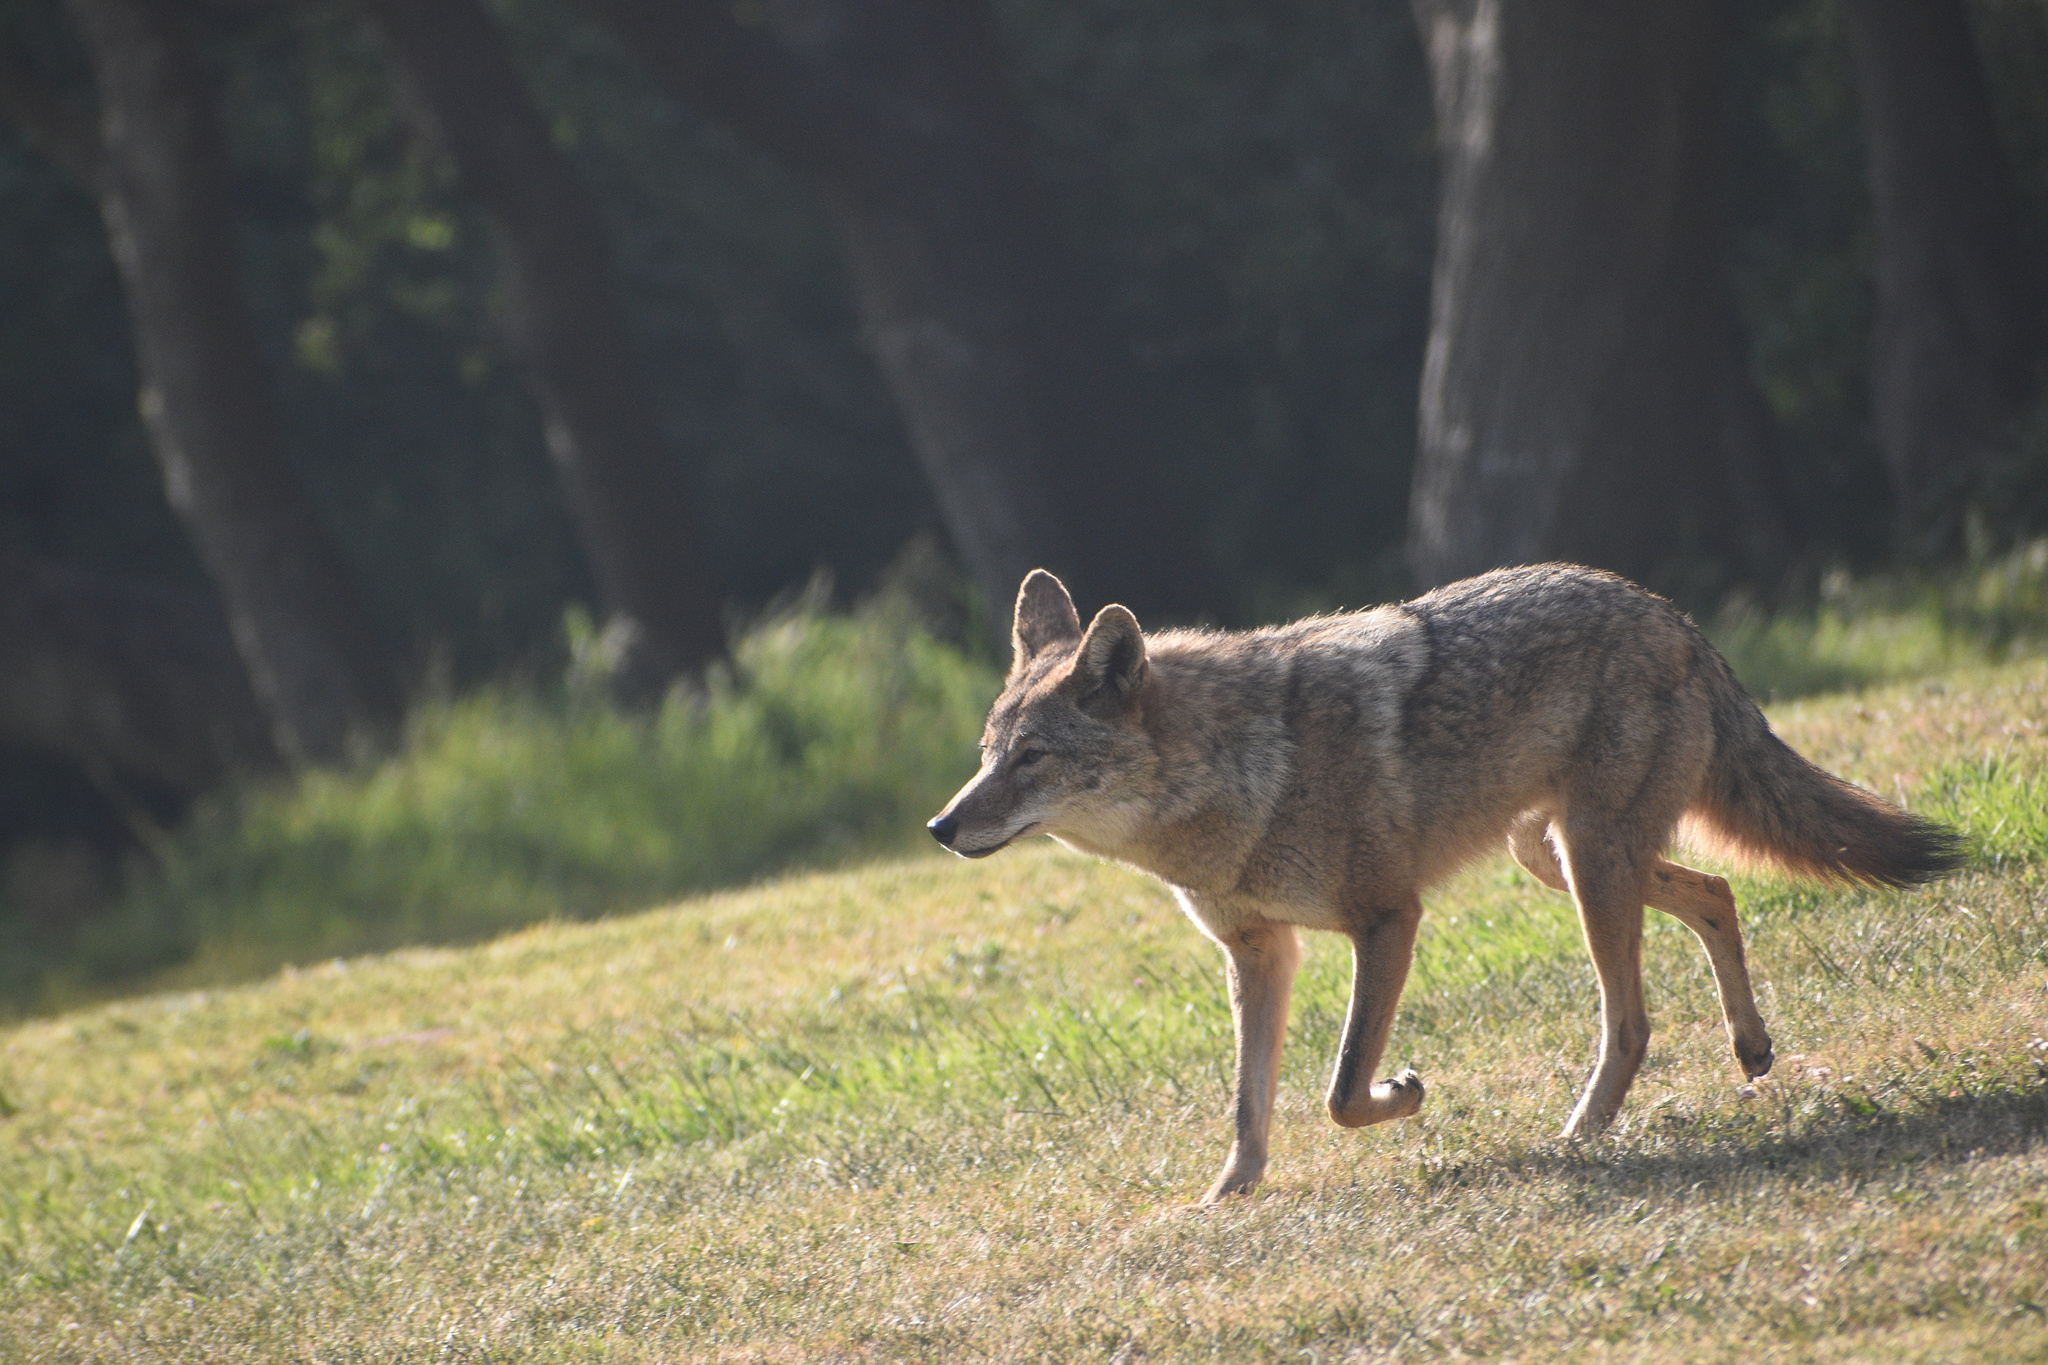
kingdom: Animalia
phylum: Chordata
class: Mammalia
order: Carnivora
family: Canidae
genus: Canis
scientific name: Canis latrans
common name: Coyote
